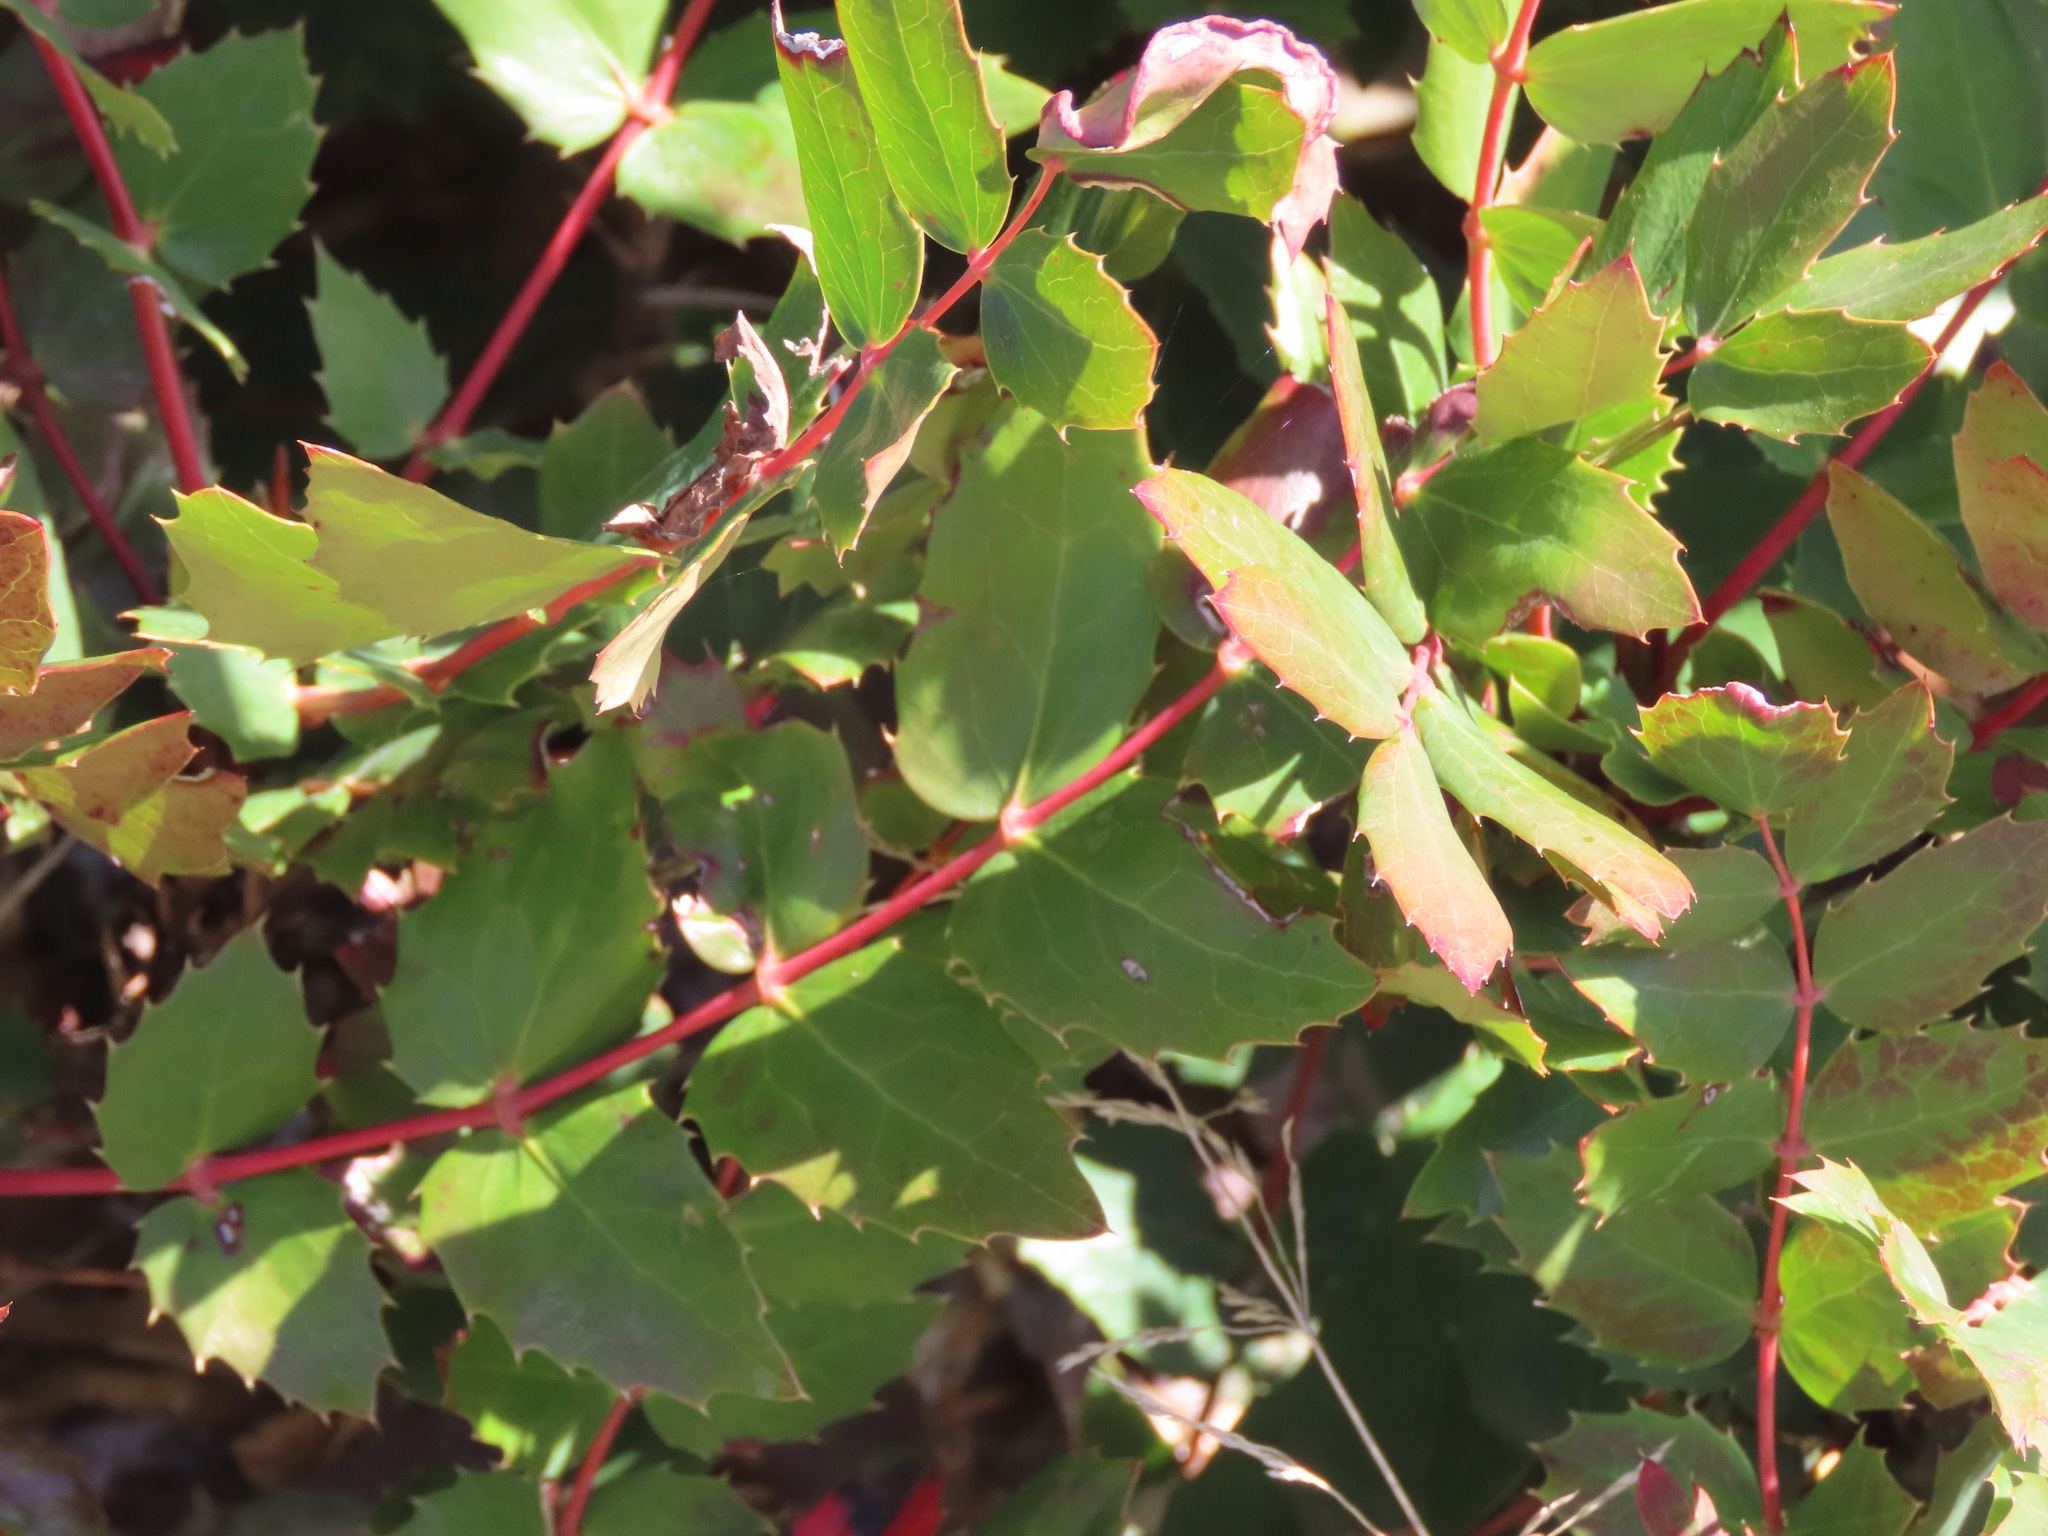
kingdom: Plantae
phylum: Tracheophyta
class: Magnoliopsida
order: Ranunculales
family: Berberidaceae
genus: Mahonia
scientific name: Mahonia nervosa
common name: Cascade oregon-grape
